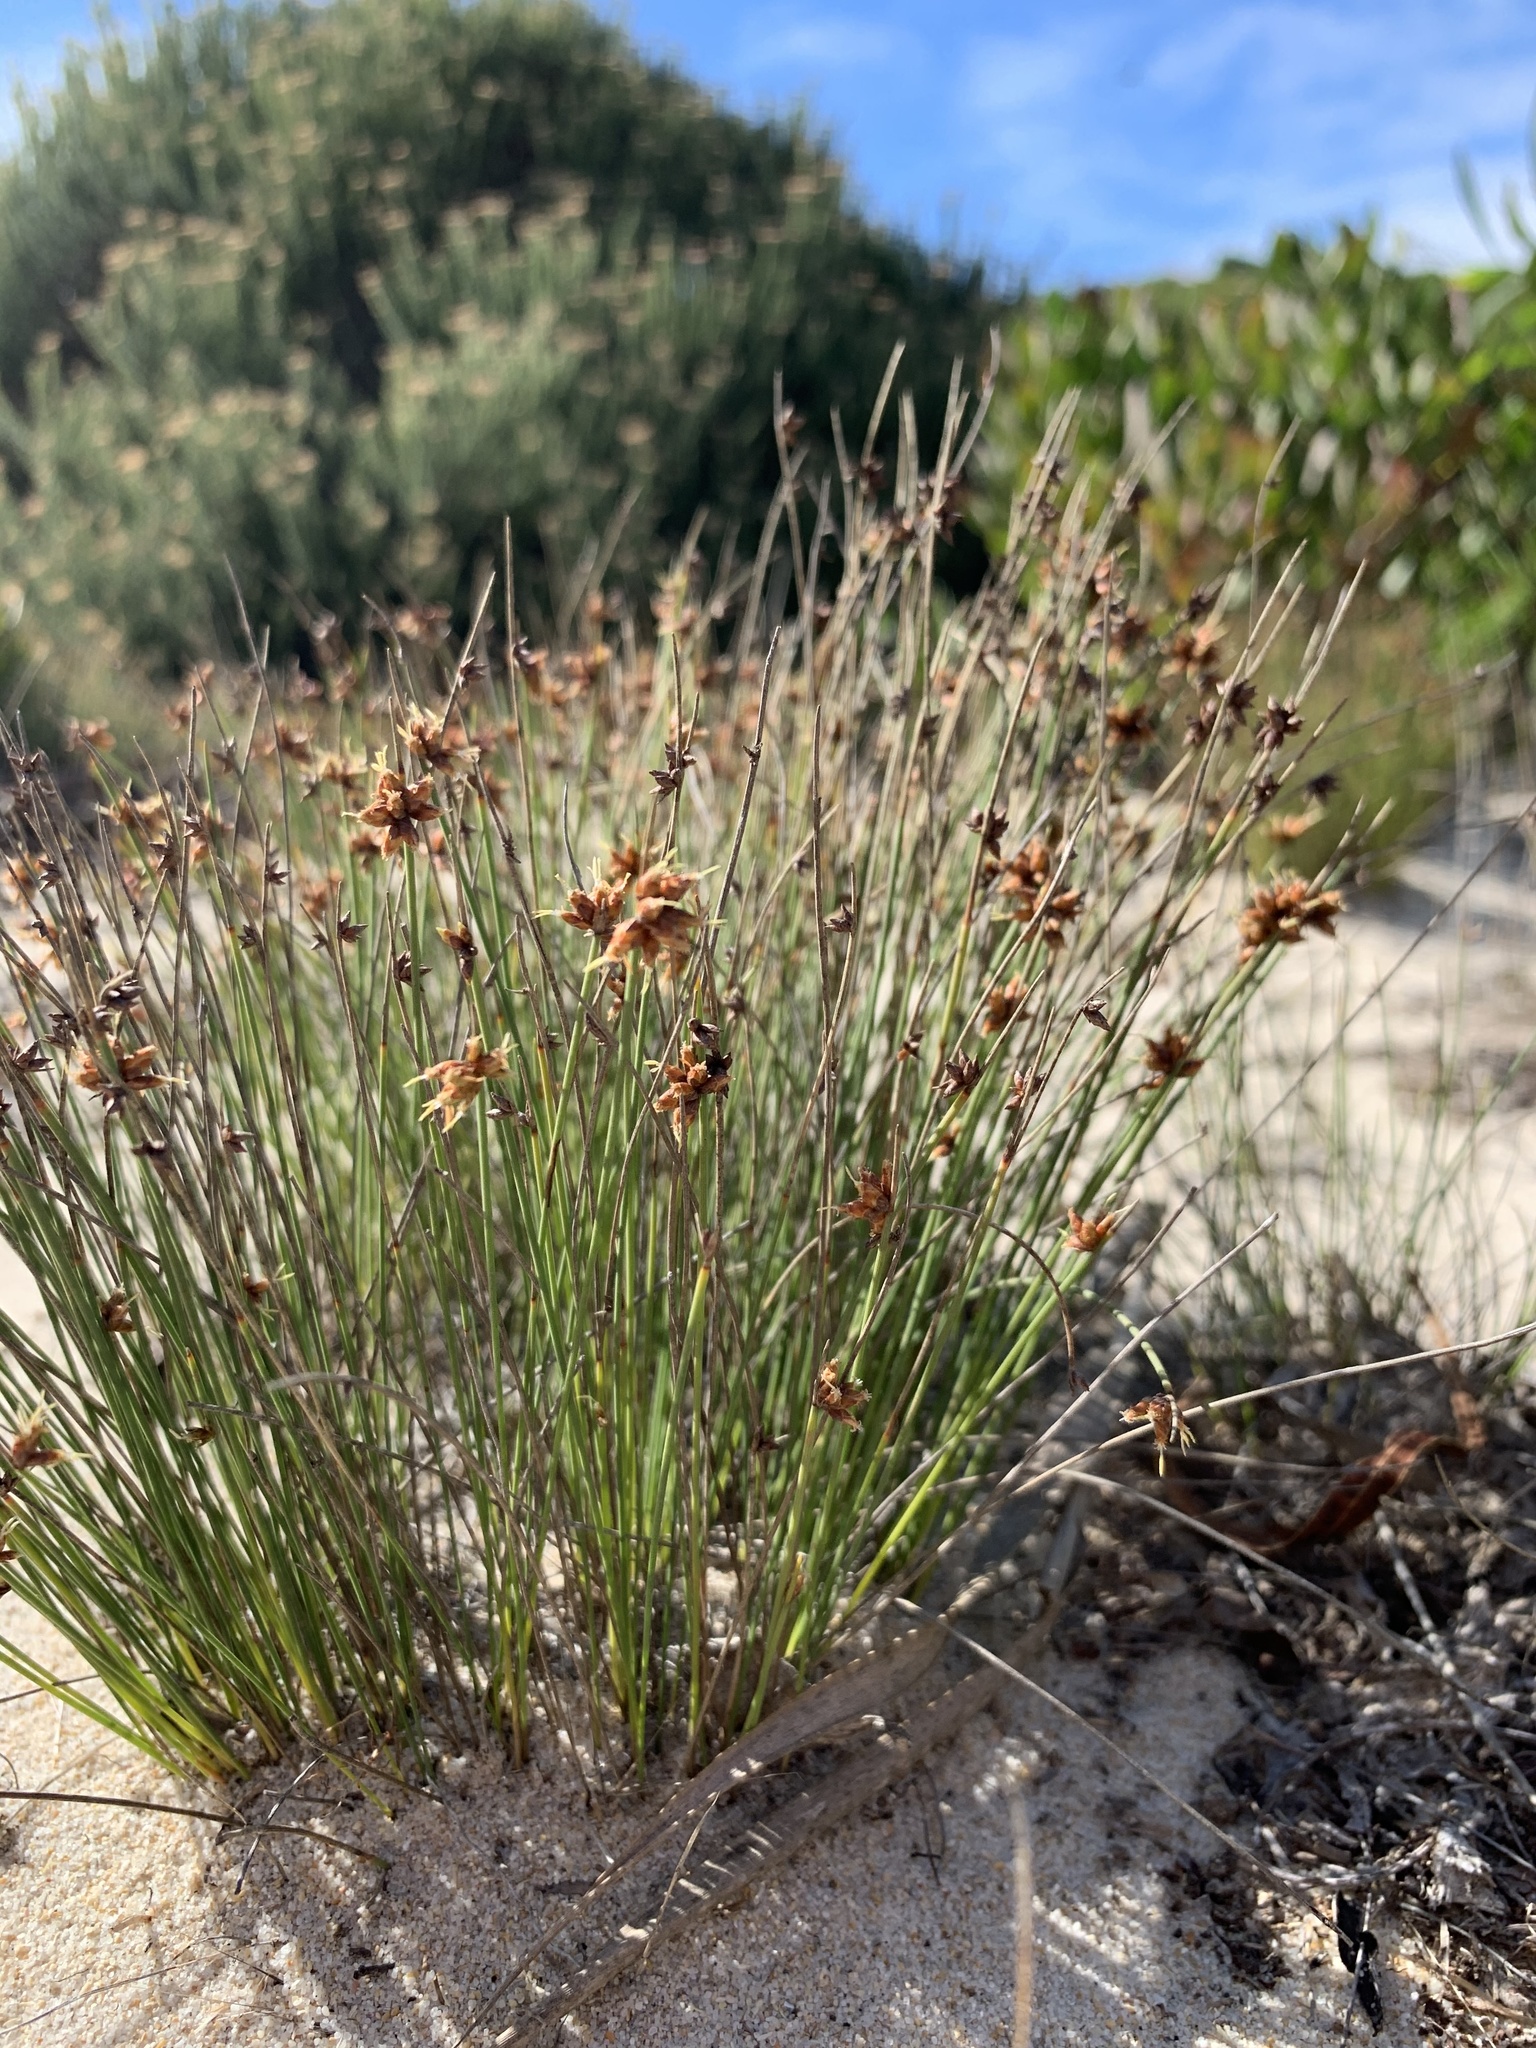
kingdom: Plantae
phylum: Tracheophyta
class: Liliopsida
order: Poales
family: Cyperaceae
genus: Ficinia
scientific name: Ficinia lateralis
